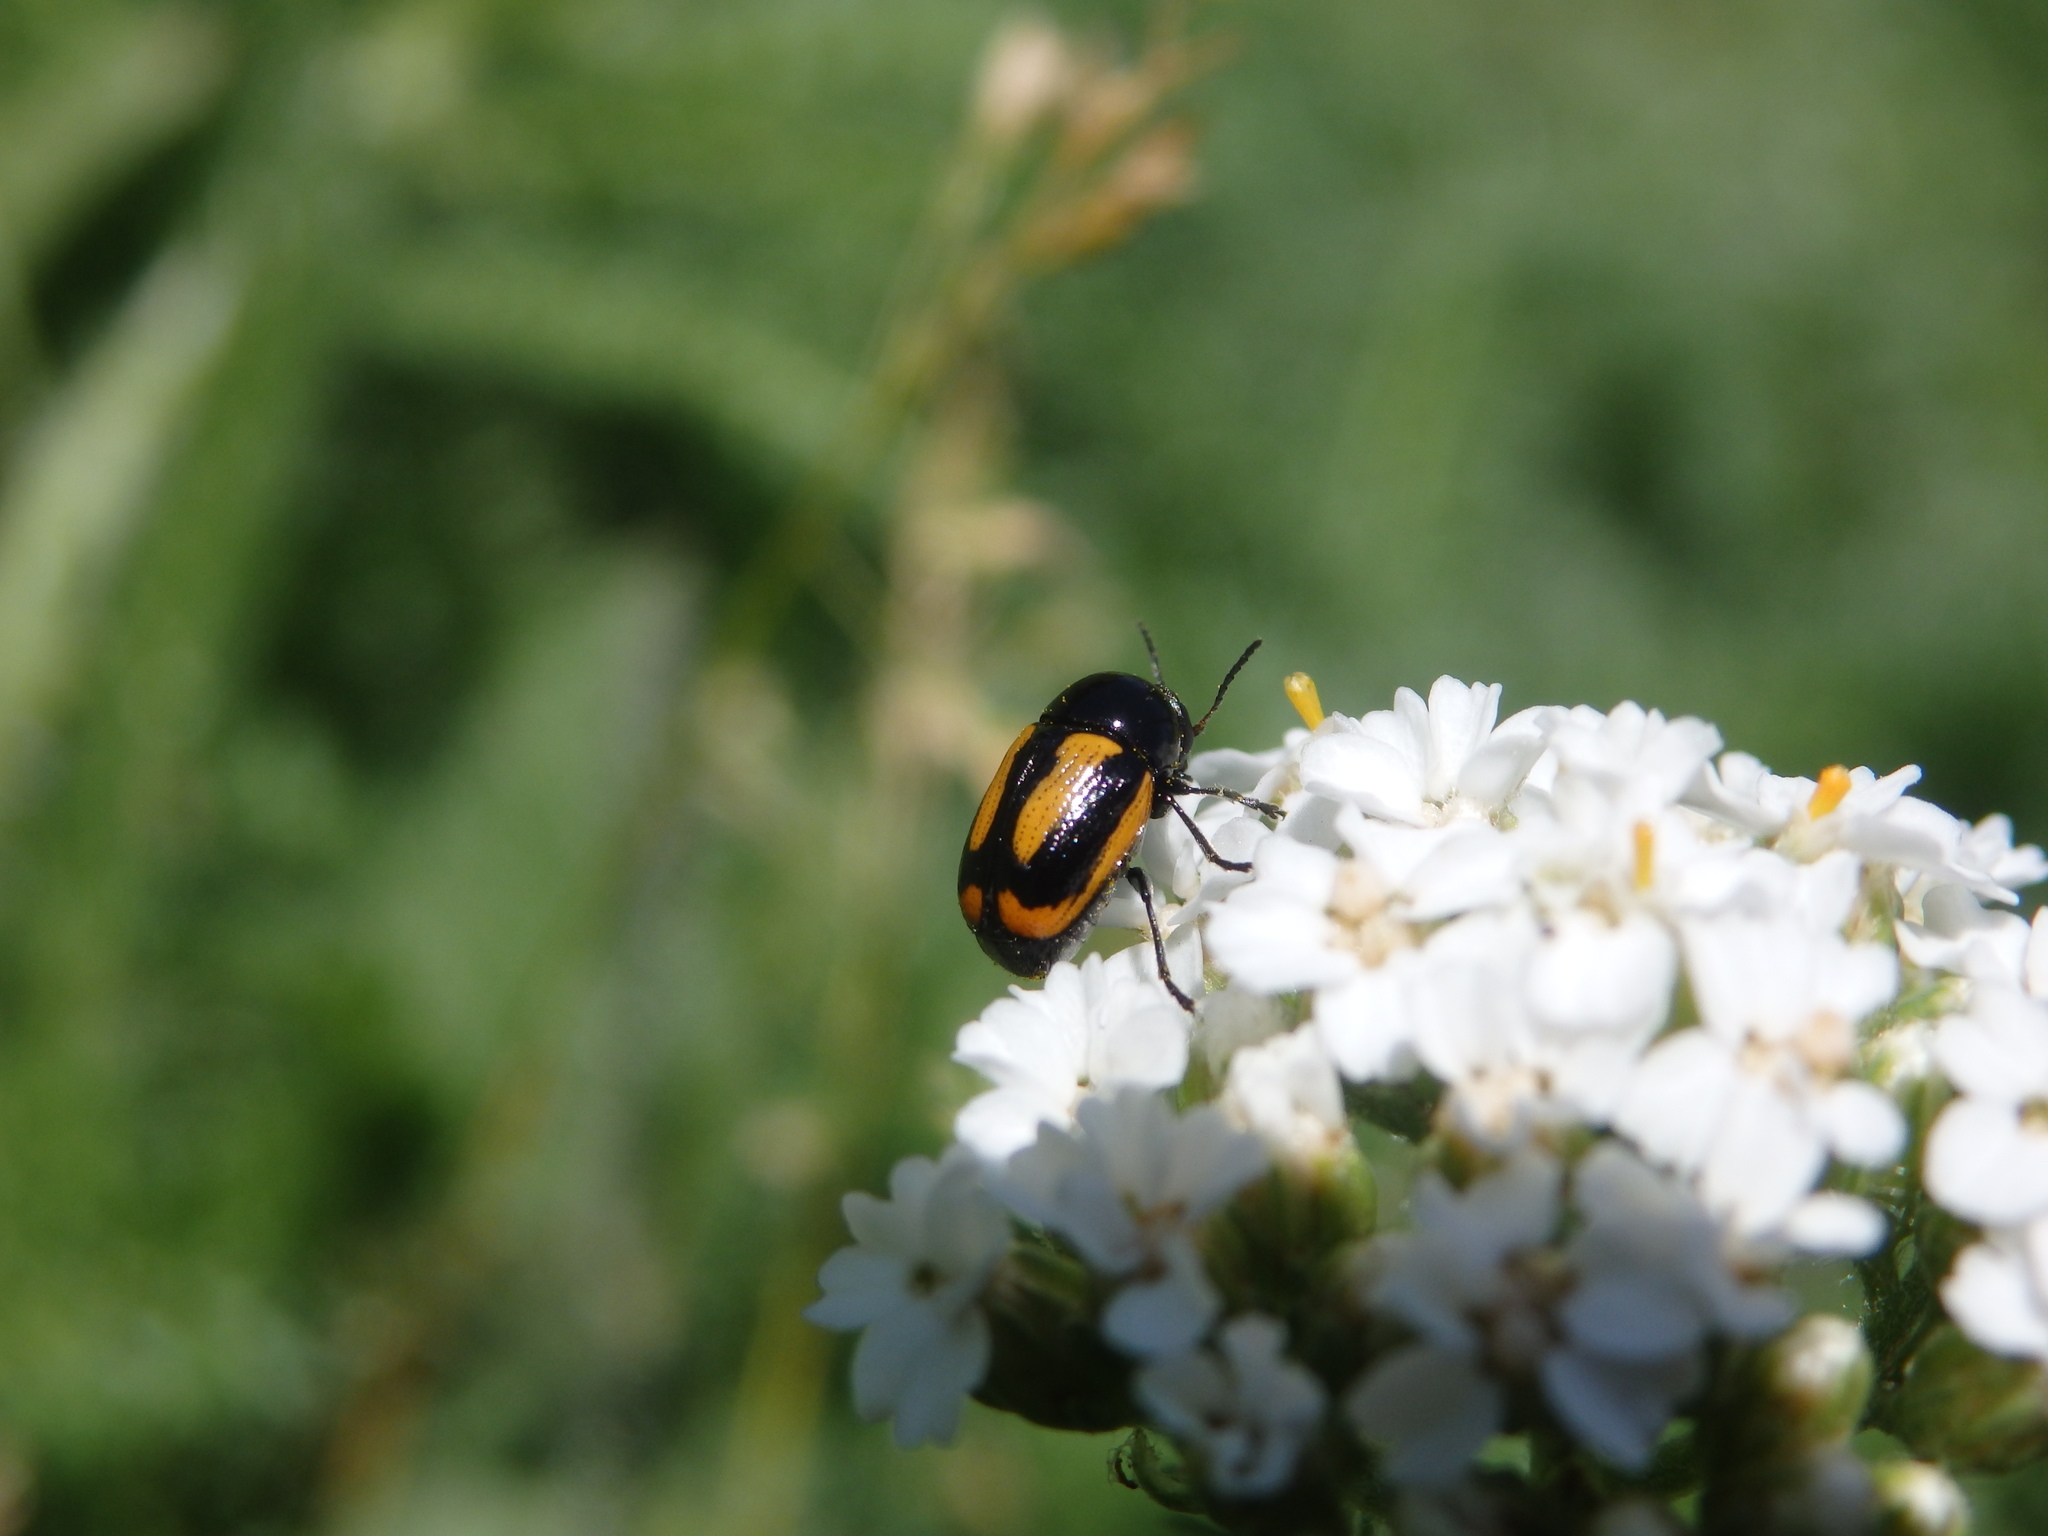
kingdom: Animalia
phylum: Arthropoda
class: Insecta
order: Coleoptera
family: Chrysomelidae
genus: Acalymma
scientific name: Acalymma vittatum
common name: Striped cucumber beetle
